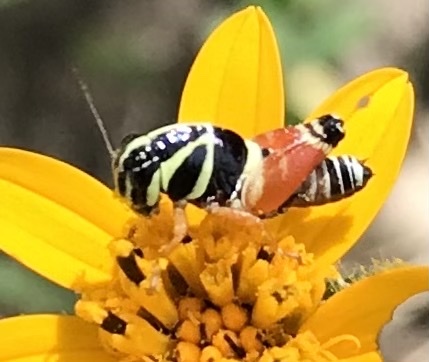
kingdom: Animalia
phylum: Arthropoda
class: Insecta
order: Orthoptera
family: Acrididae
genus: Aidemona
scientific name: Aidemona azteca
